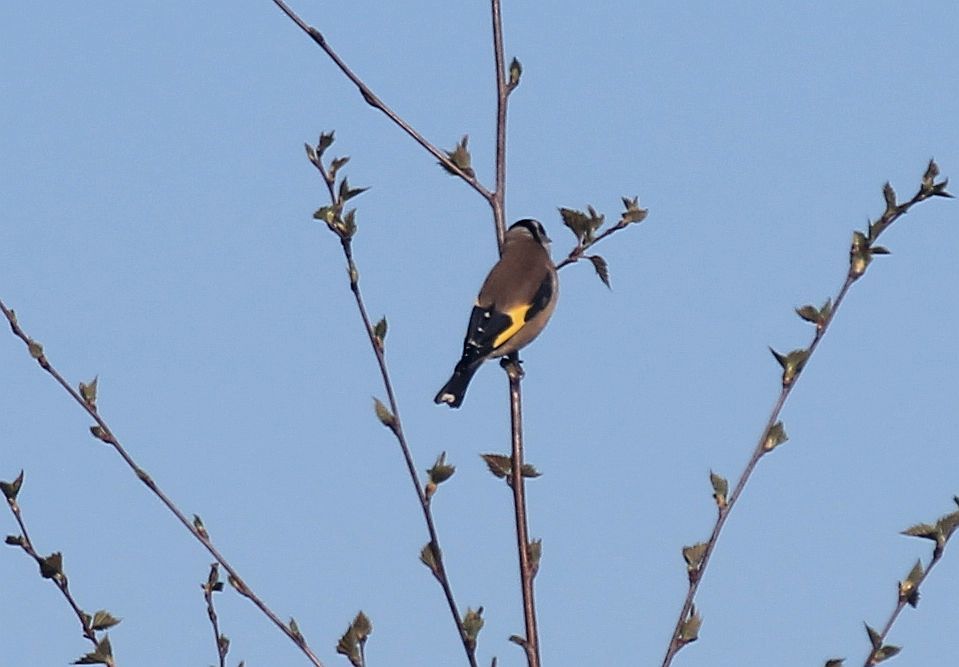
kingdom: Animalia
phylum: Chordata
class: Aves
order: Passeriformes
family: Fringillidae
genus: Carduelis
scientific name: Carduelis carduelis
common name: European goldfinch
